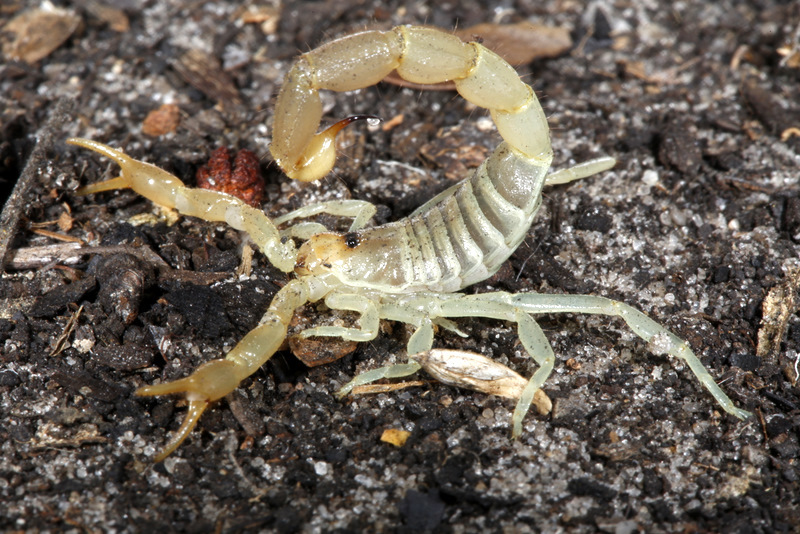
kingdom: Animalia
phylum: Arthropoda
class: Arachnida
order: Scorpiones
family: Buthidae
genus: Parabuthus
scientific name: Parabuthus kuanyamarum
